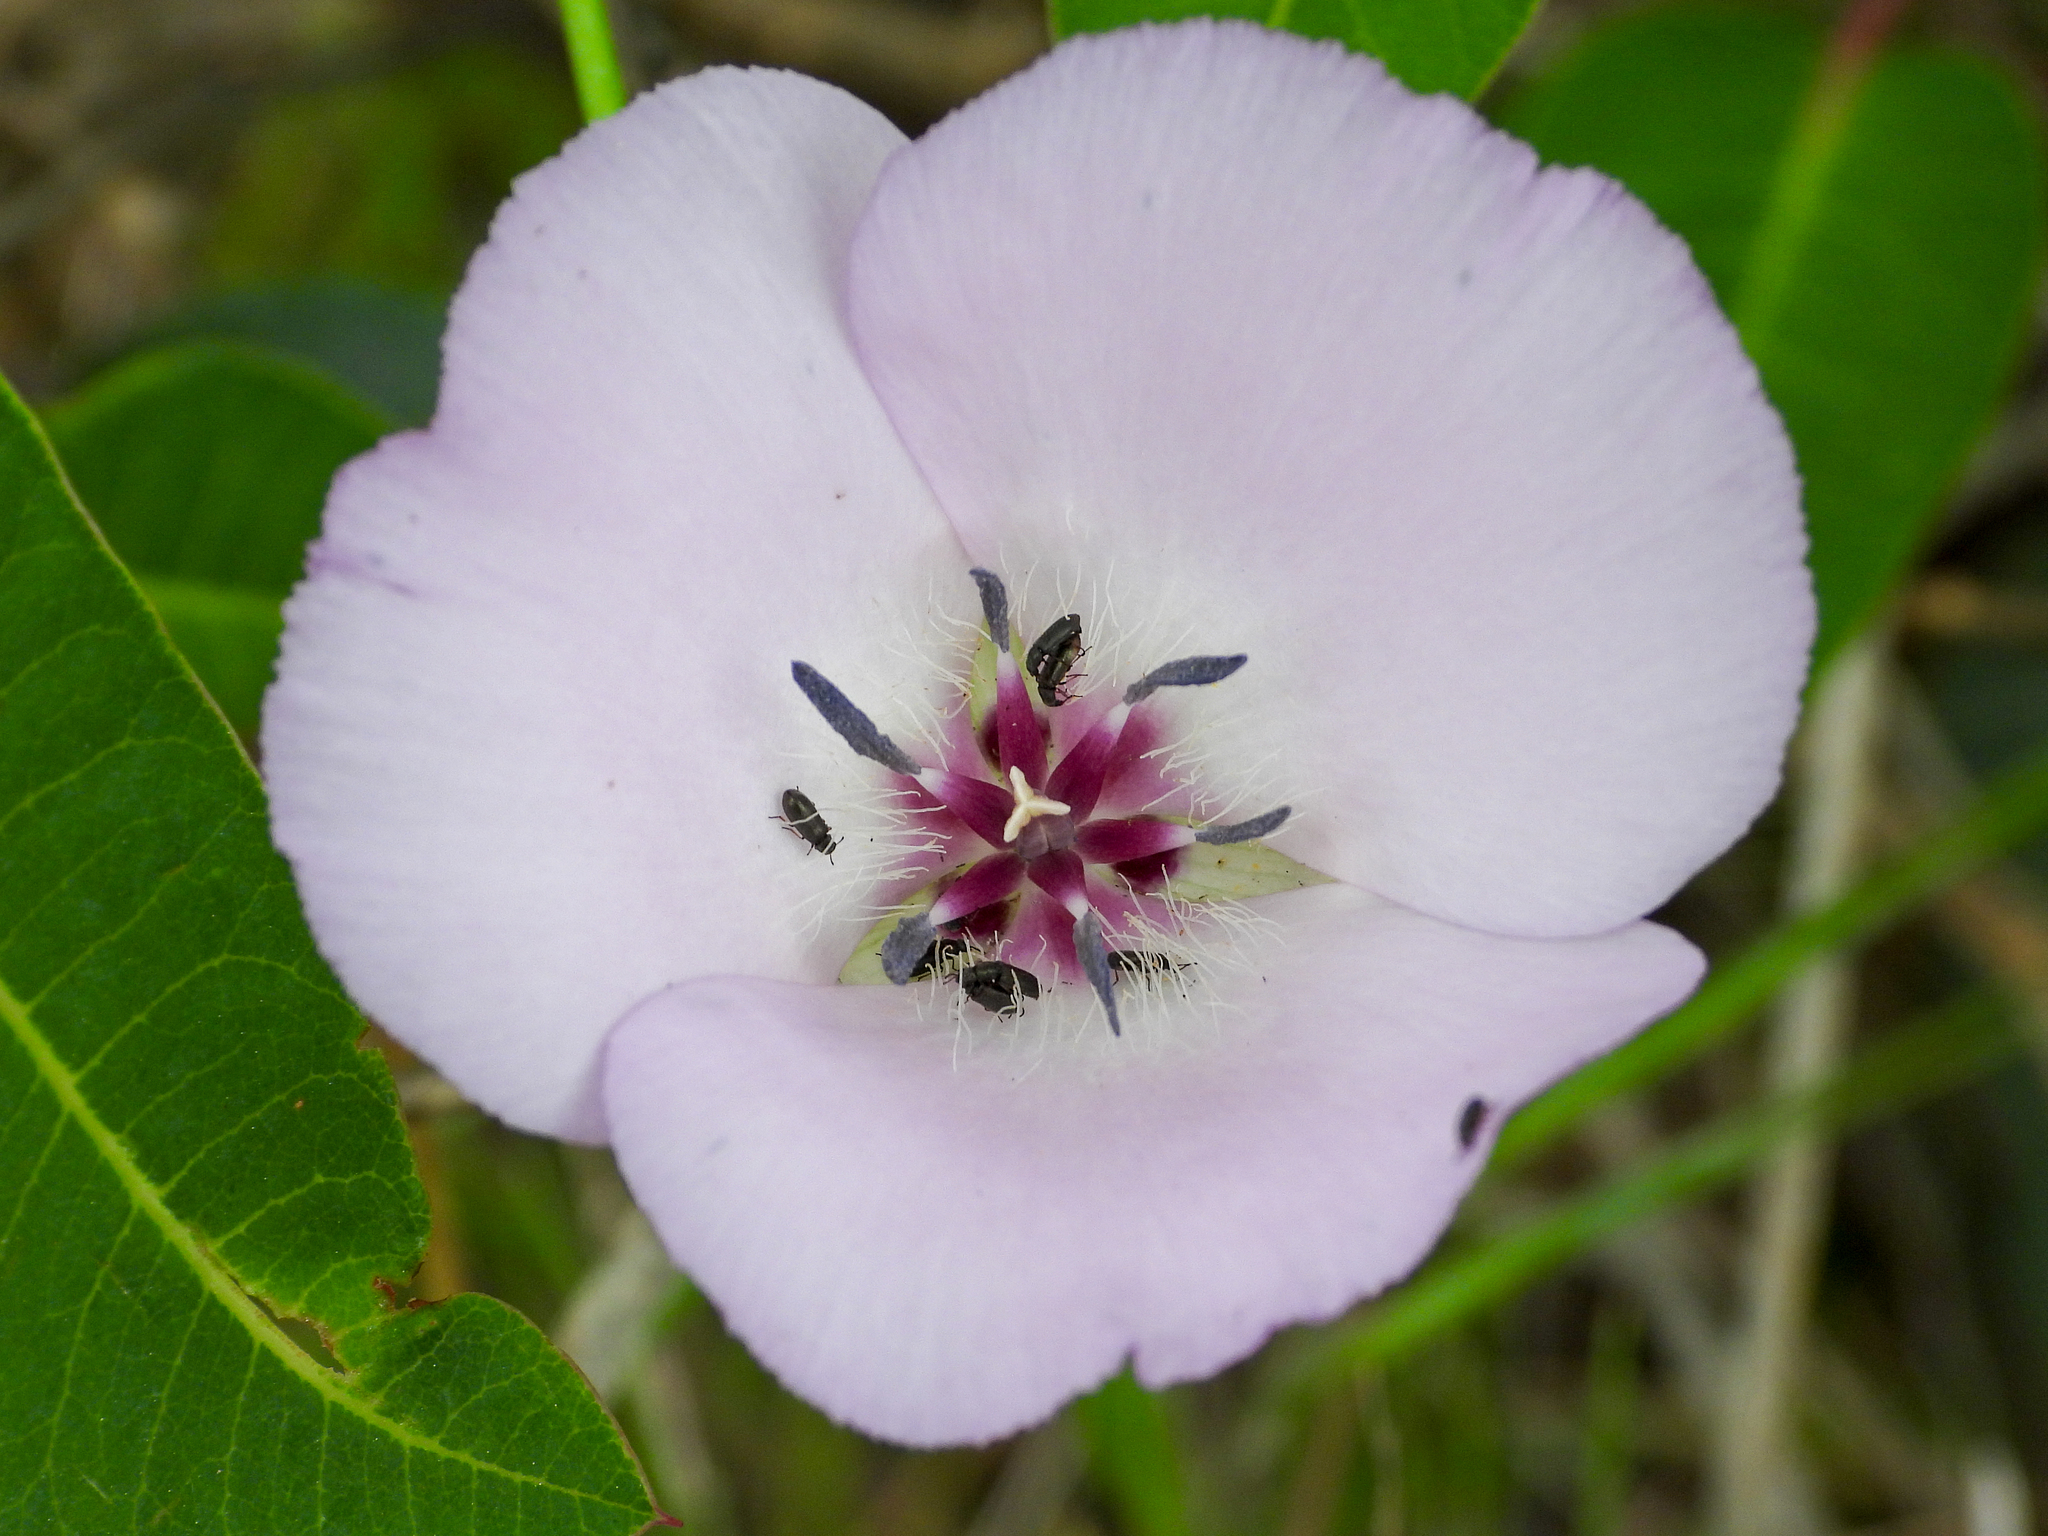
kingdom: Plantae
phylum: Tracheophyta
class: Liliopsida
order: Liliales
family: Liliaceae
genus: Calochortus
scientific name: Calochortus splendens
